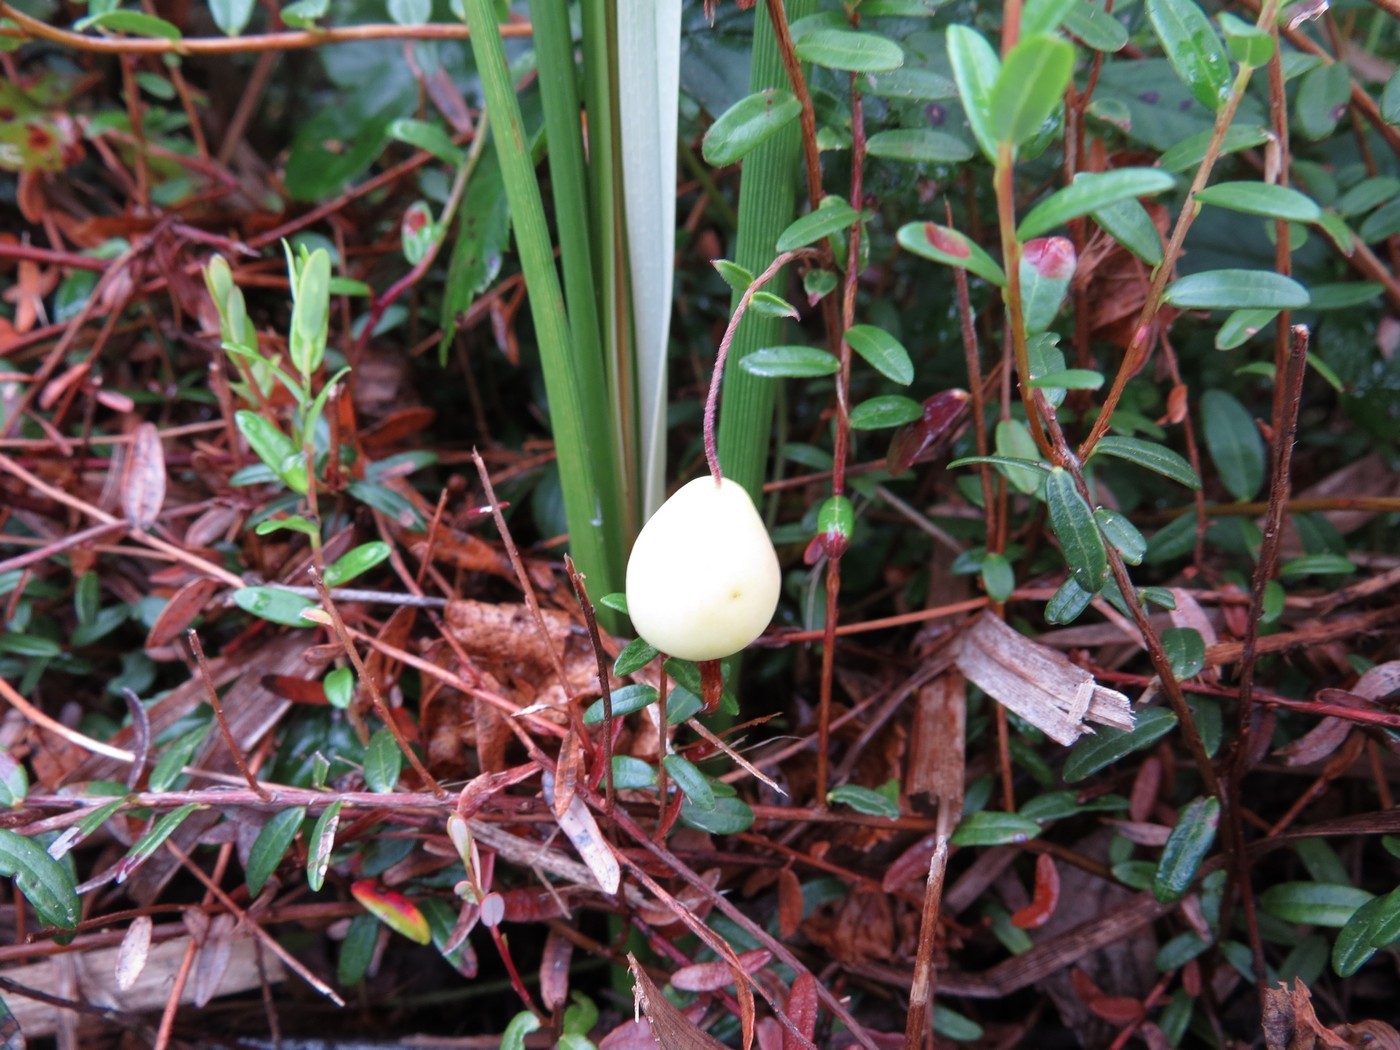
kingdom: Plantae
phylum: Tracheophyta
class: Magnoliopsida
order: Ericales
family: Ericaceae
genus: Vaccinium
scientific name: Vaccinium macrocarpon
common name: American cranberry
